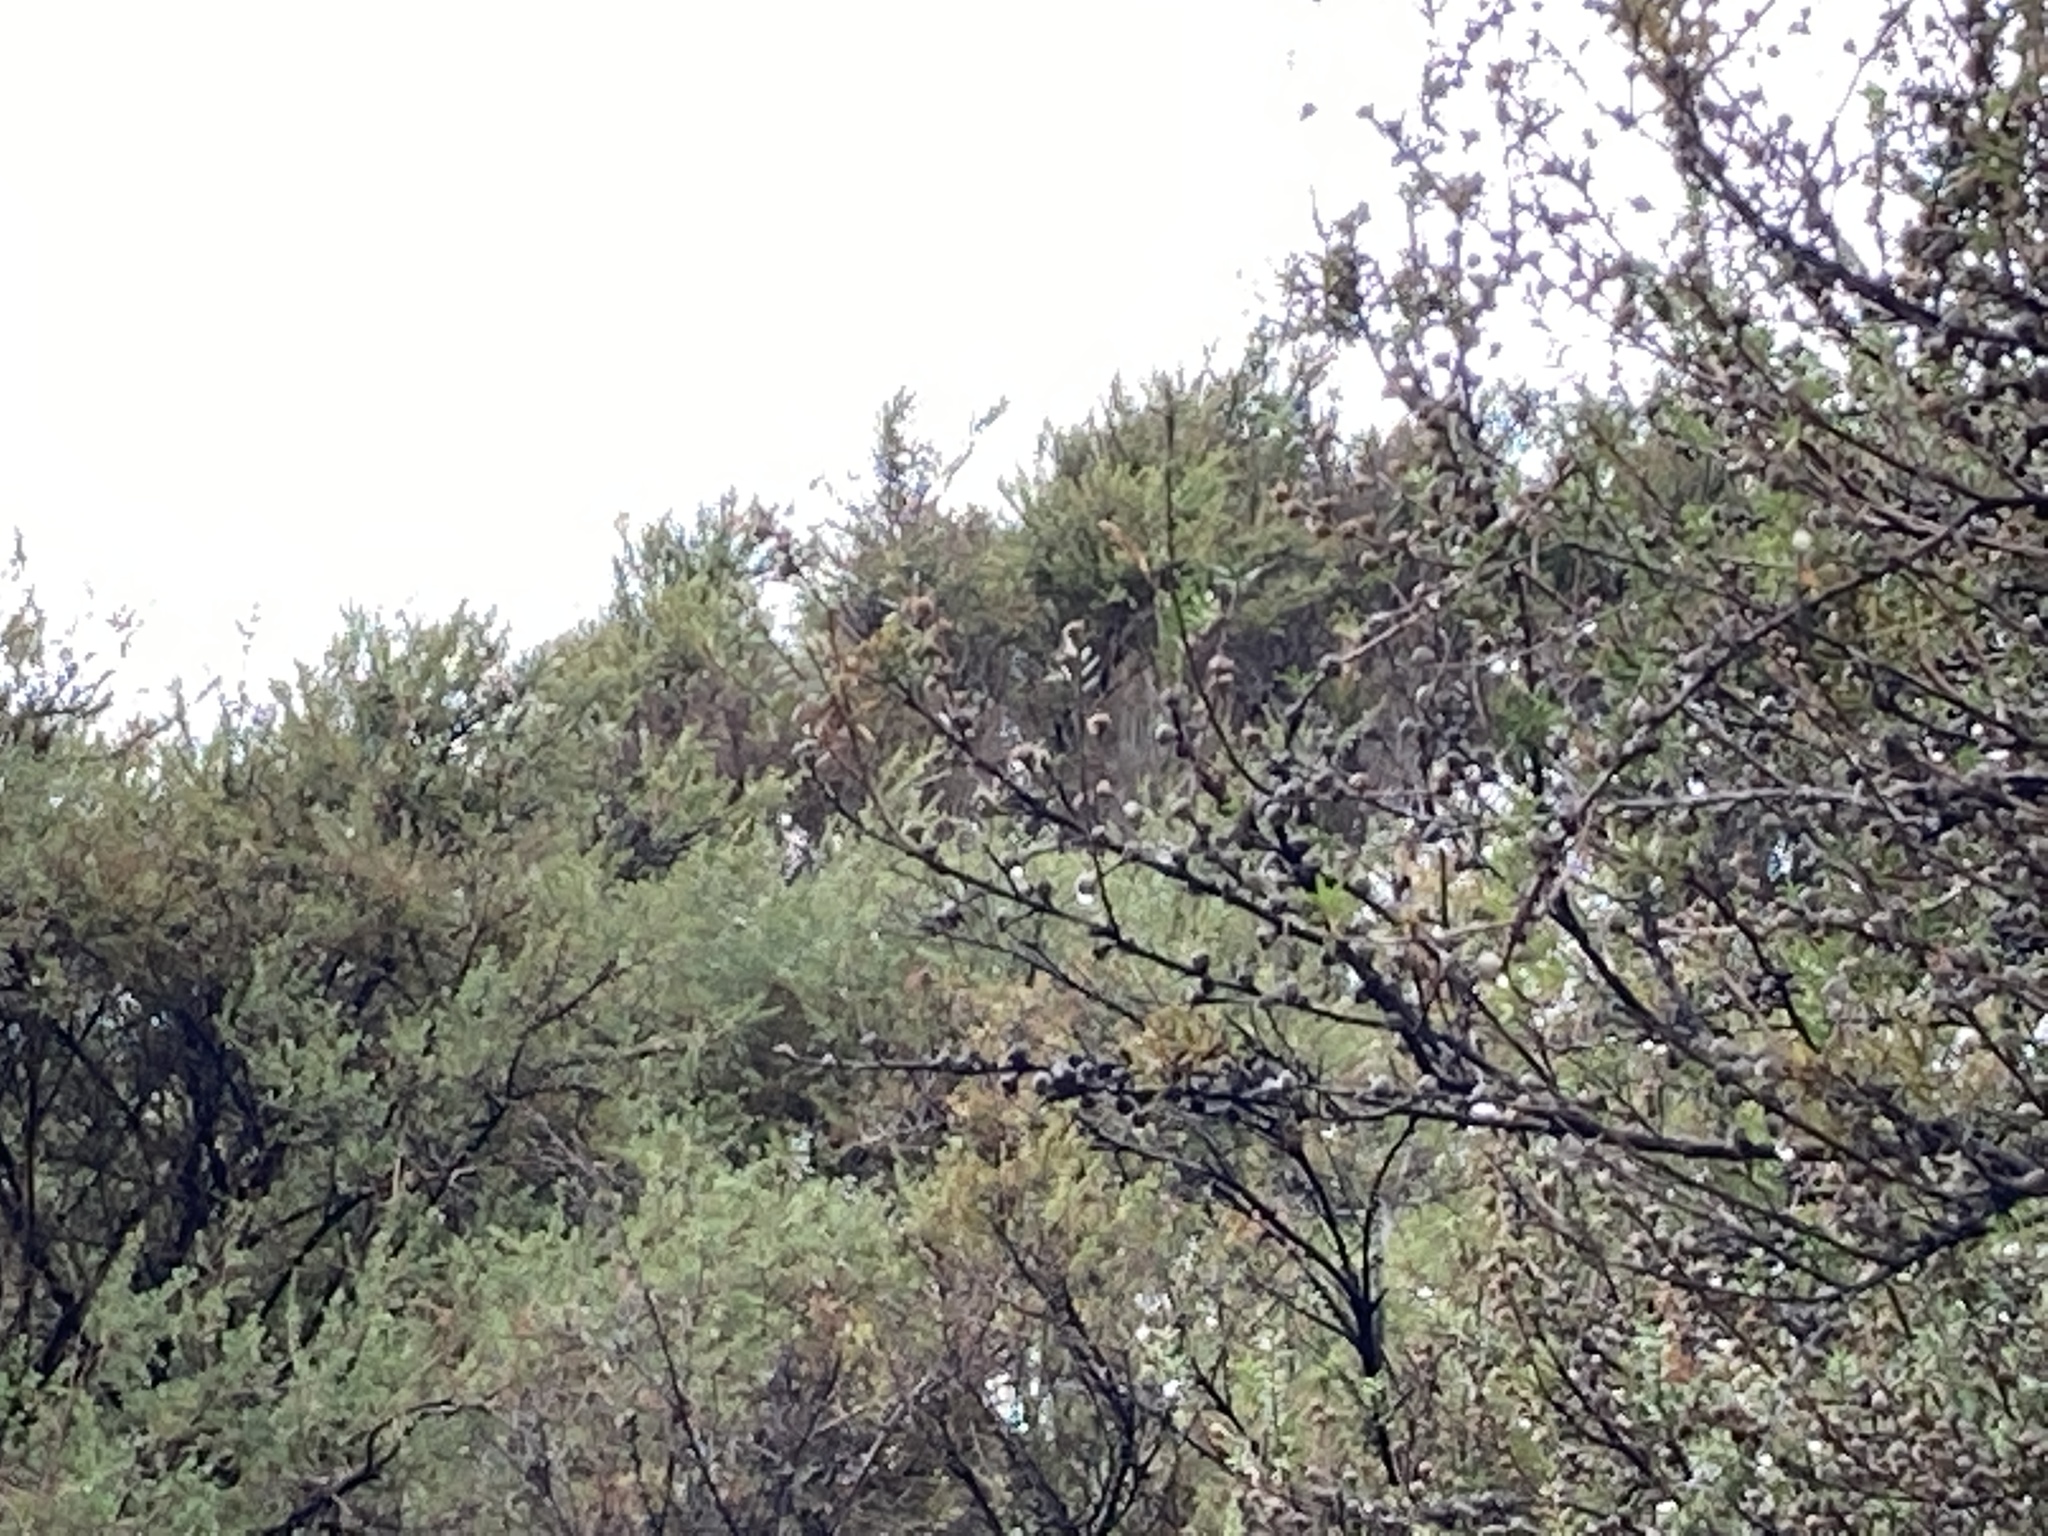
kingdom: Plantae
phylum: Tracheophyta
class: Magnoliopsida
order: Myrtales
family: Myrtaceae
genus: Leptospermum
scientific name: Leptospermum scoparium
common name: Broom tea-tree
